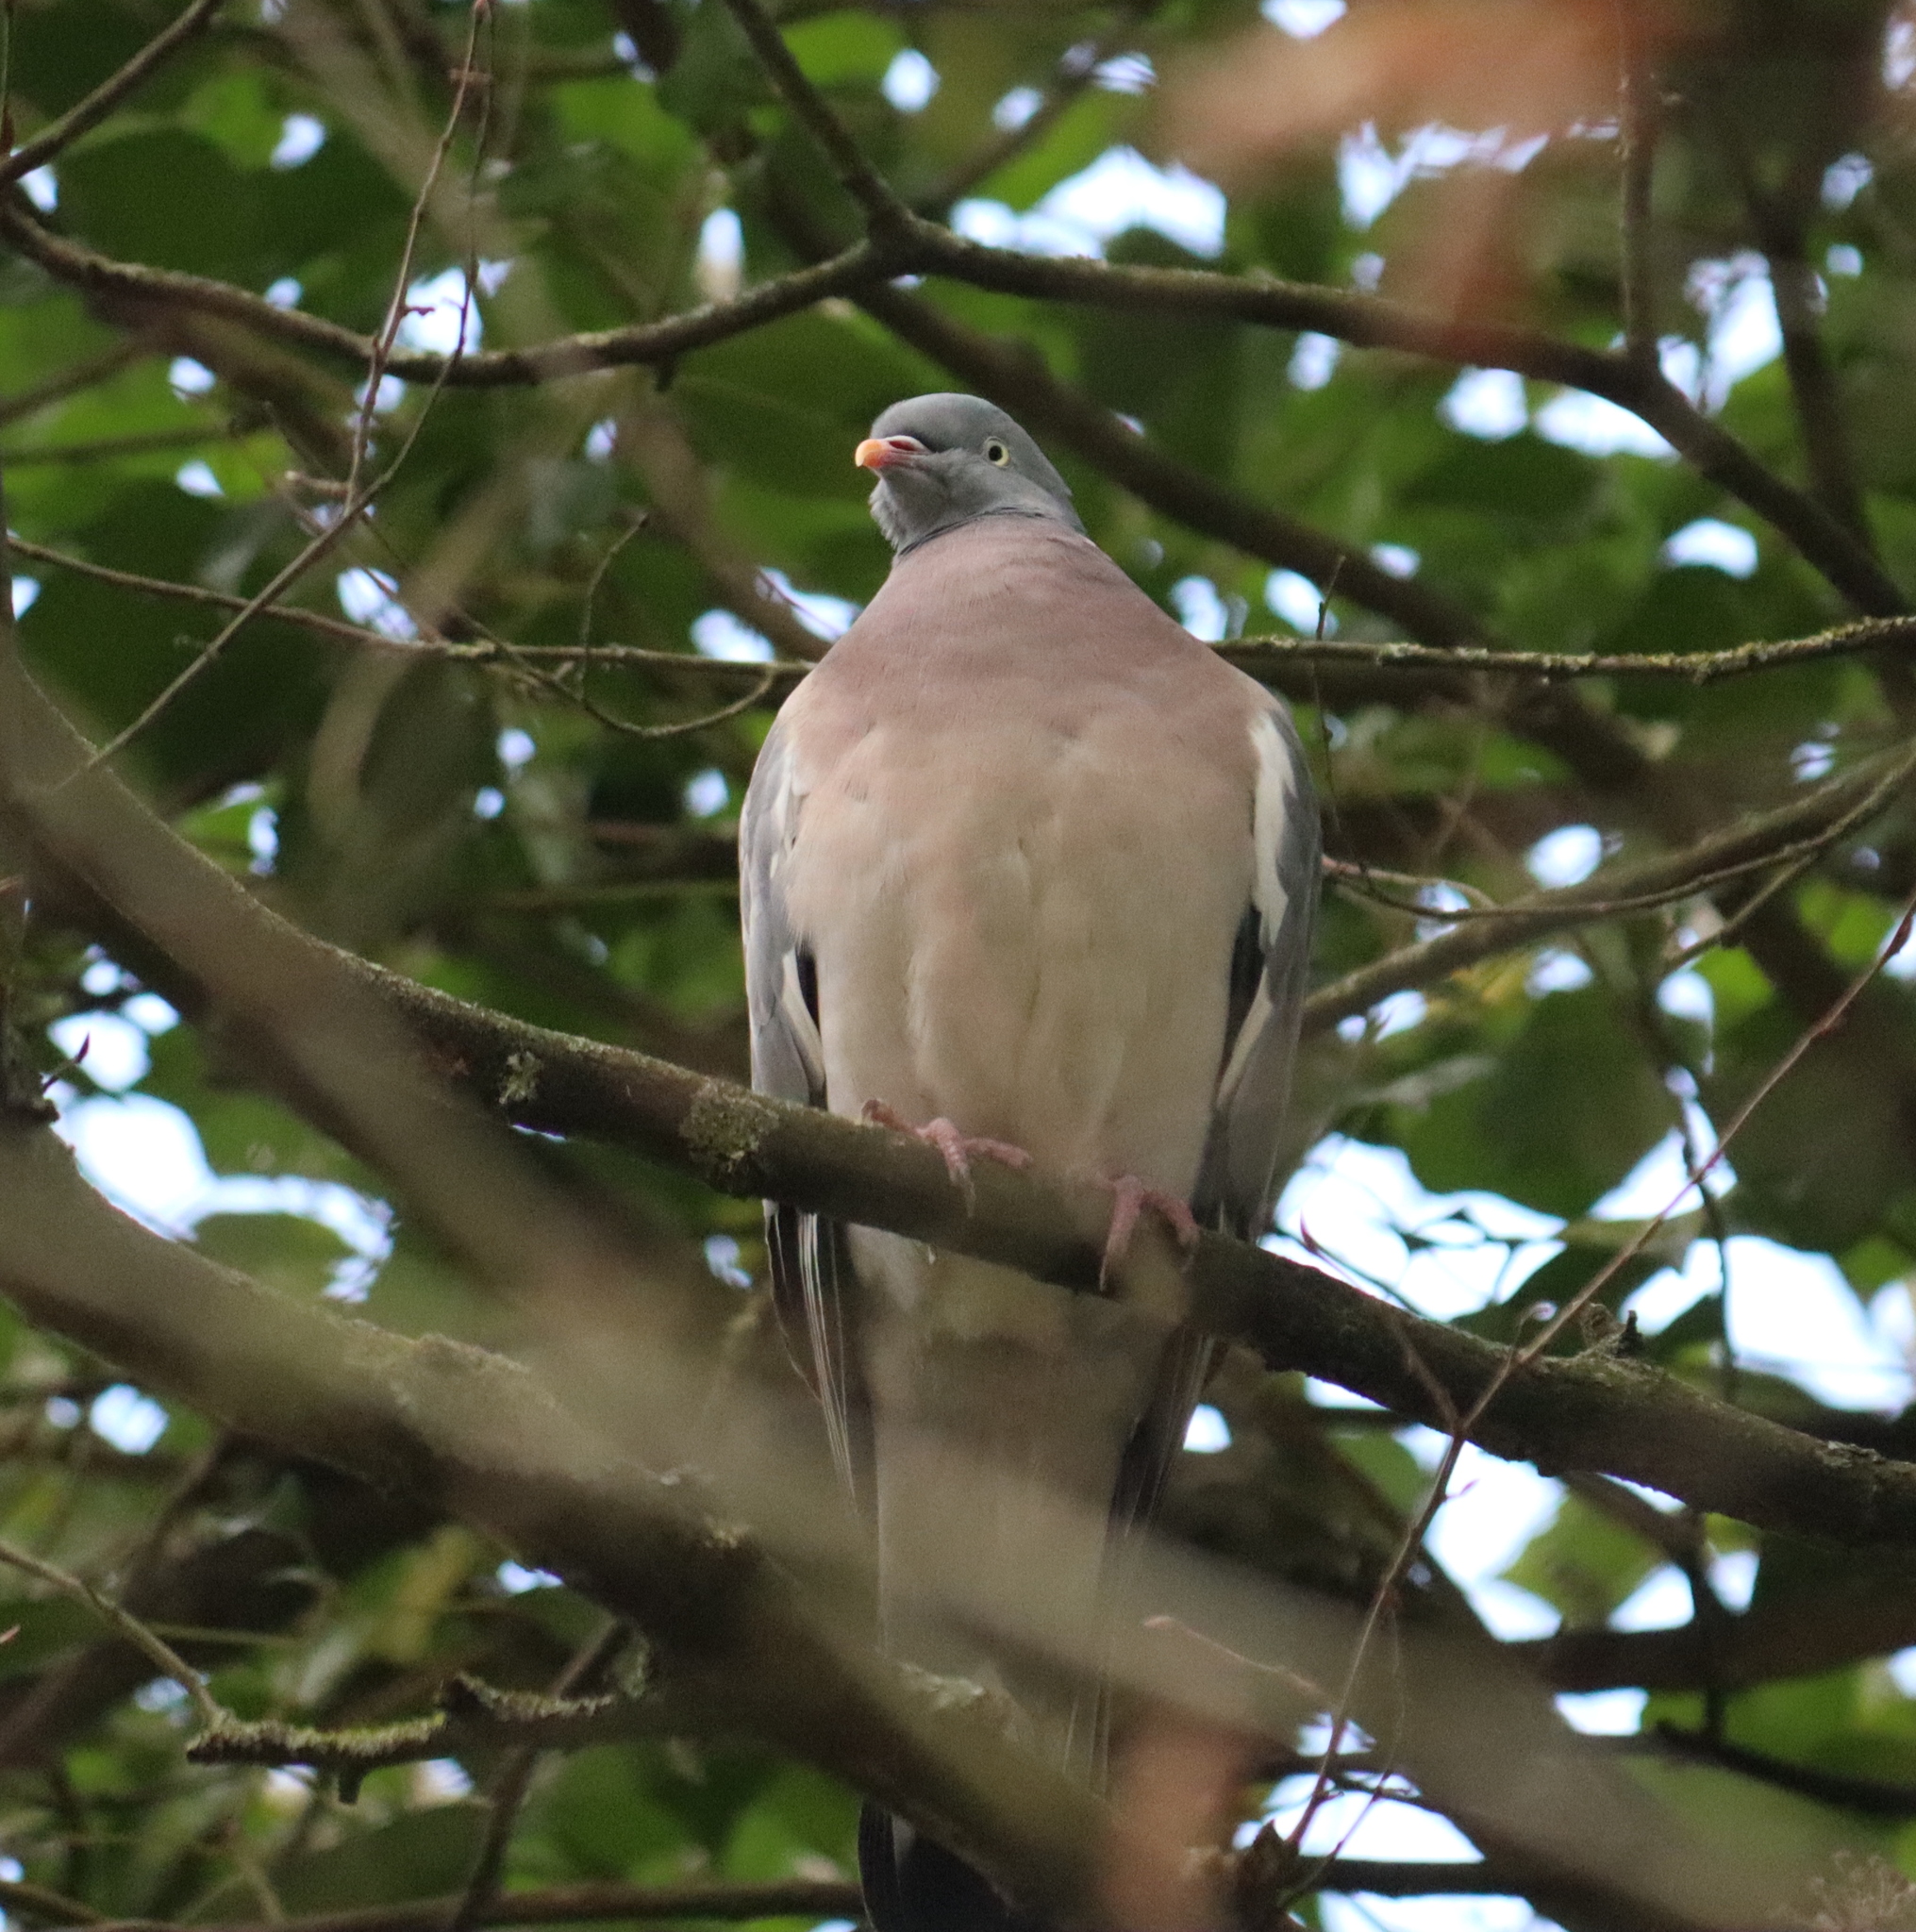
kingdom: Animalia
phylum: Chordata
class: Aves
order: Columbiformes
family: Columbidae
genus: Columba
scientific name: Columba palumbus
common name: Common wood pigeon
